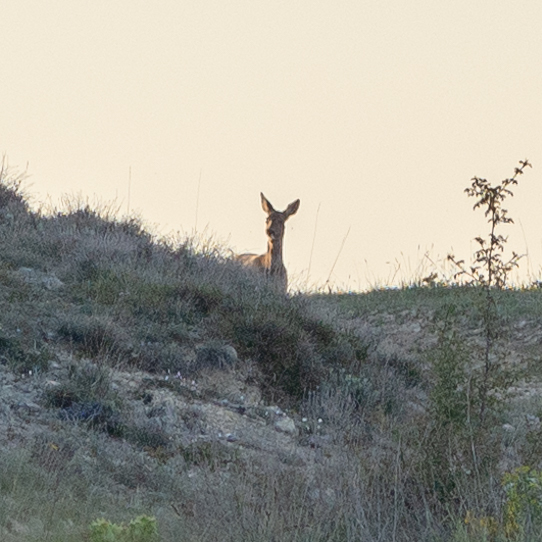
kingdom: Animalia
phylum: Chordata
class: Mammalia
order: Artiodactyla
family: Cervidae
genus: Capreolus
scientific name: Capreolus capreolus
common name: Western roe deer
